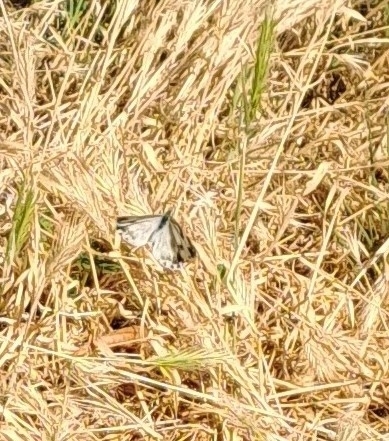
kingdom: Animalia
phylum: Arthropoda
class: Insecta
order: Lepidoptera
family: Pieridae
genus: Pontia
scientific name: Pontia edusa
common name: Eastern bath white
